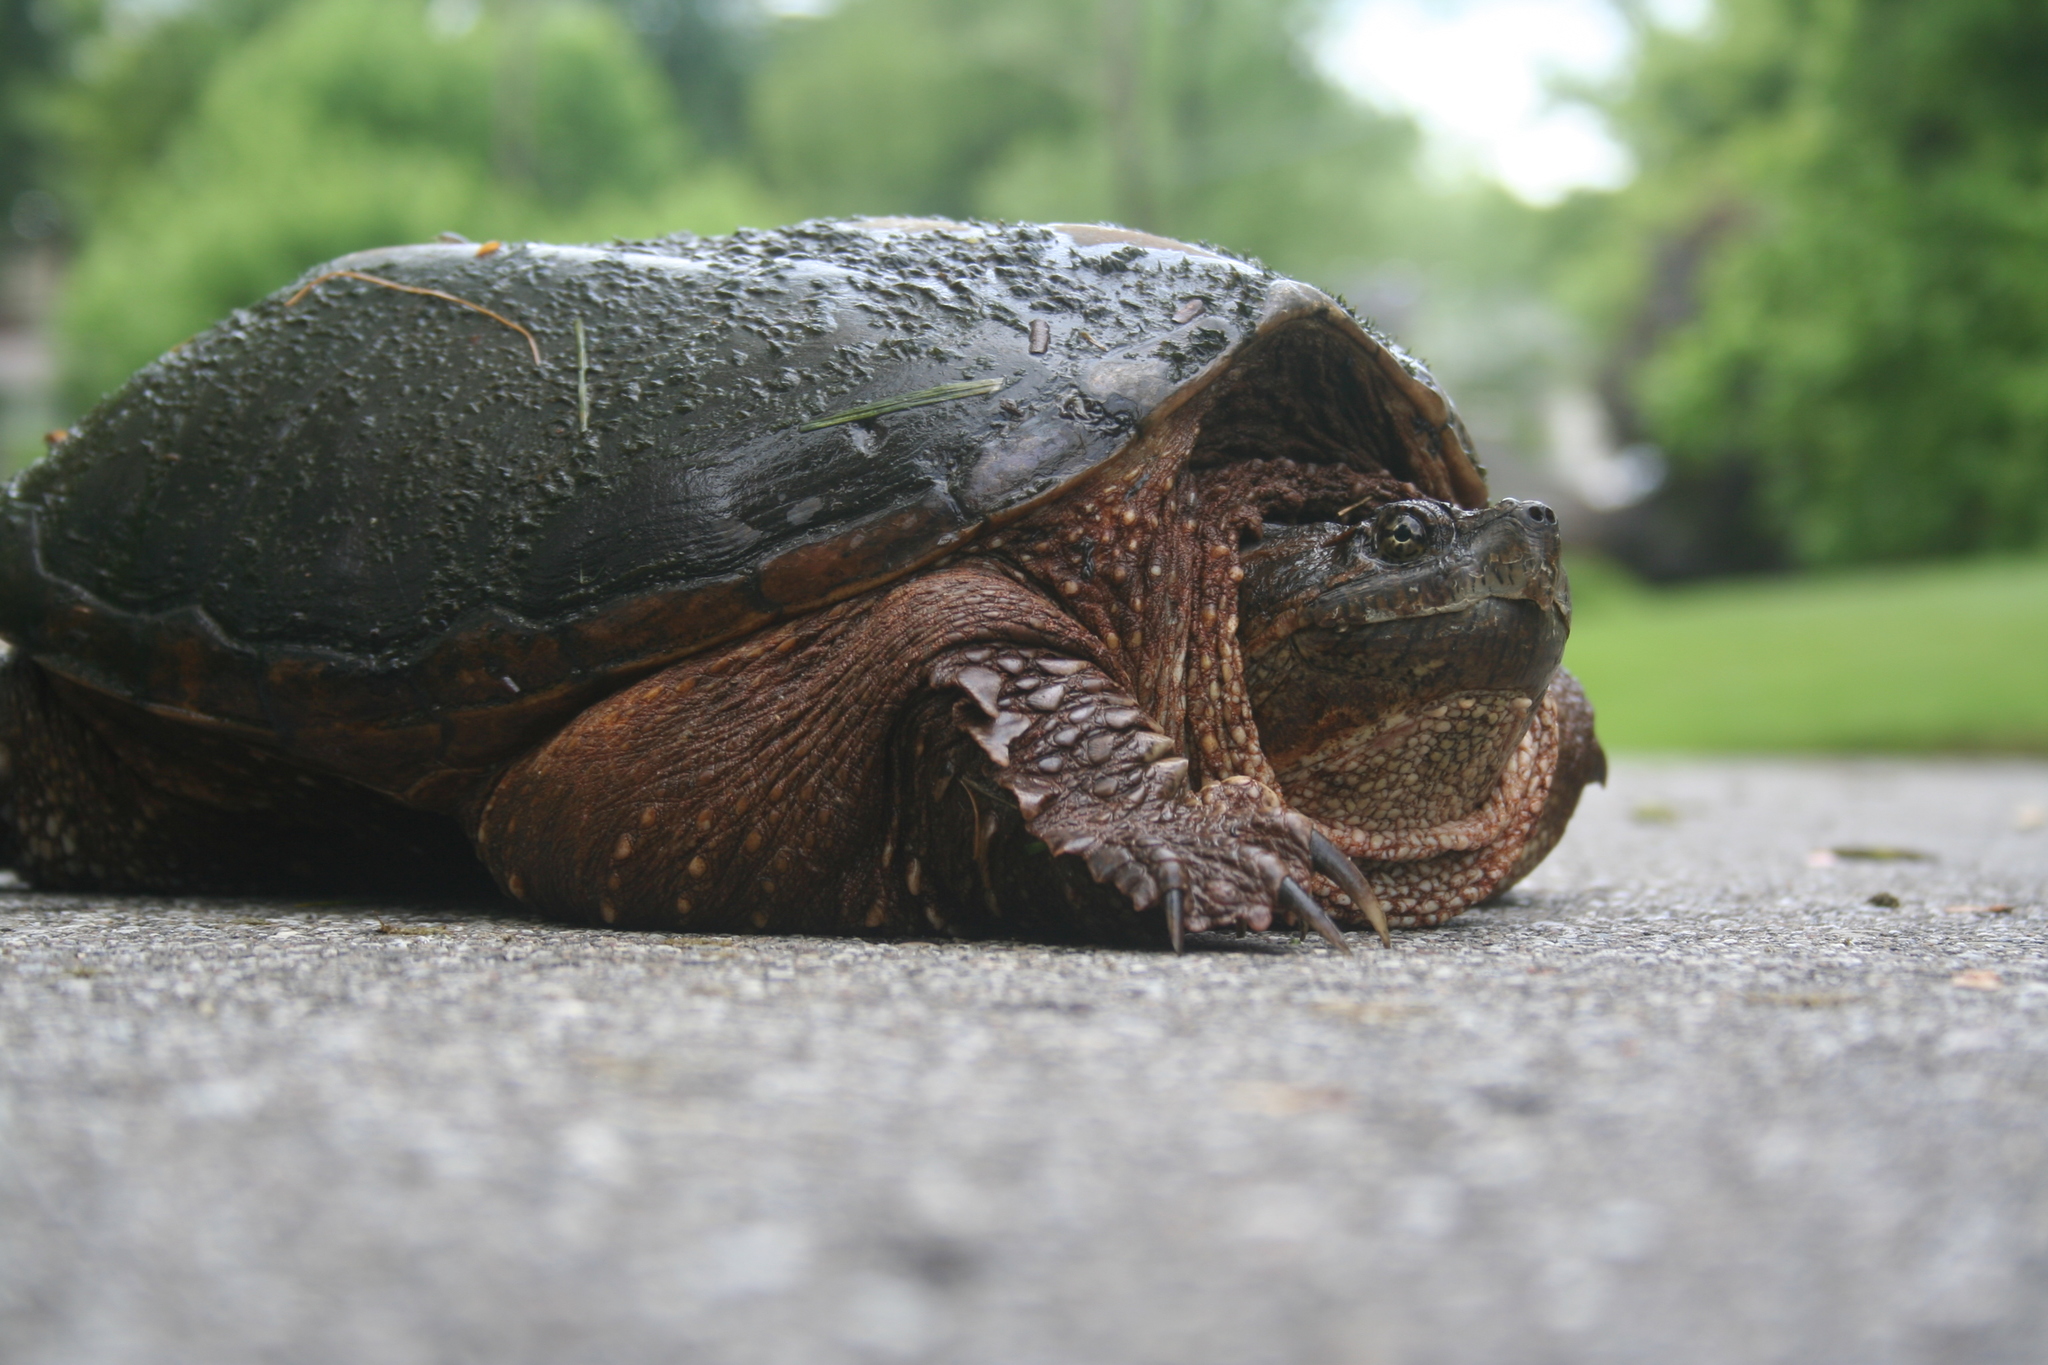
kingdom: Animalia
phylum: Chordata
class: Testudines
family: Chelydridae
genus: Chelydra
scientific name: Chelydra serpentina
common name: Common snapping turtle
